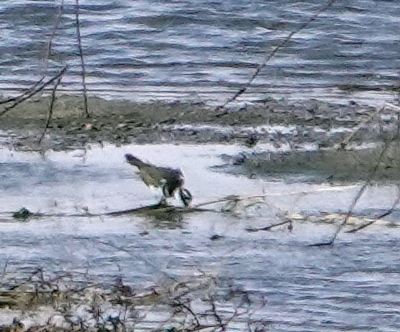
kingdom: Animalia
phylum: Chordata
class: Aves
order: Charadriiformes
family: Charadriidae
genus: Charadrius
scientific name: Charadrius vociferus
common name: Killdeer
